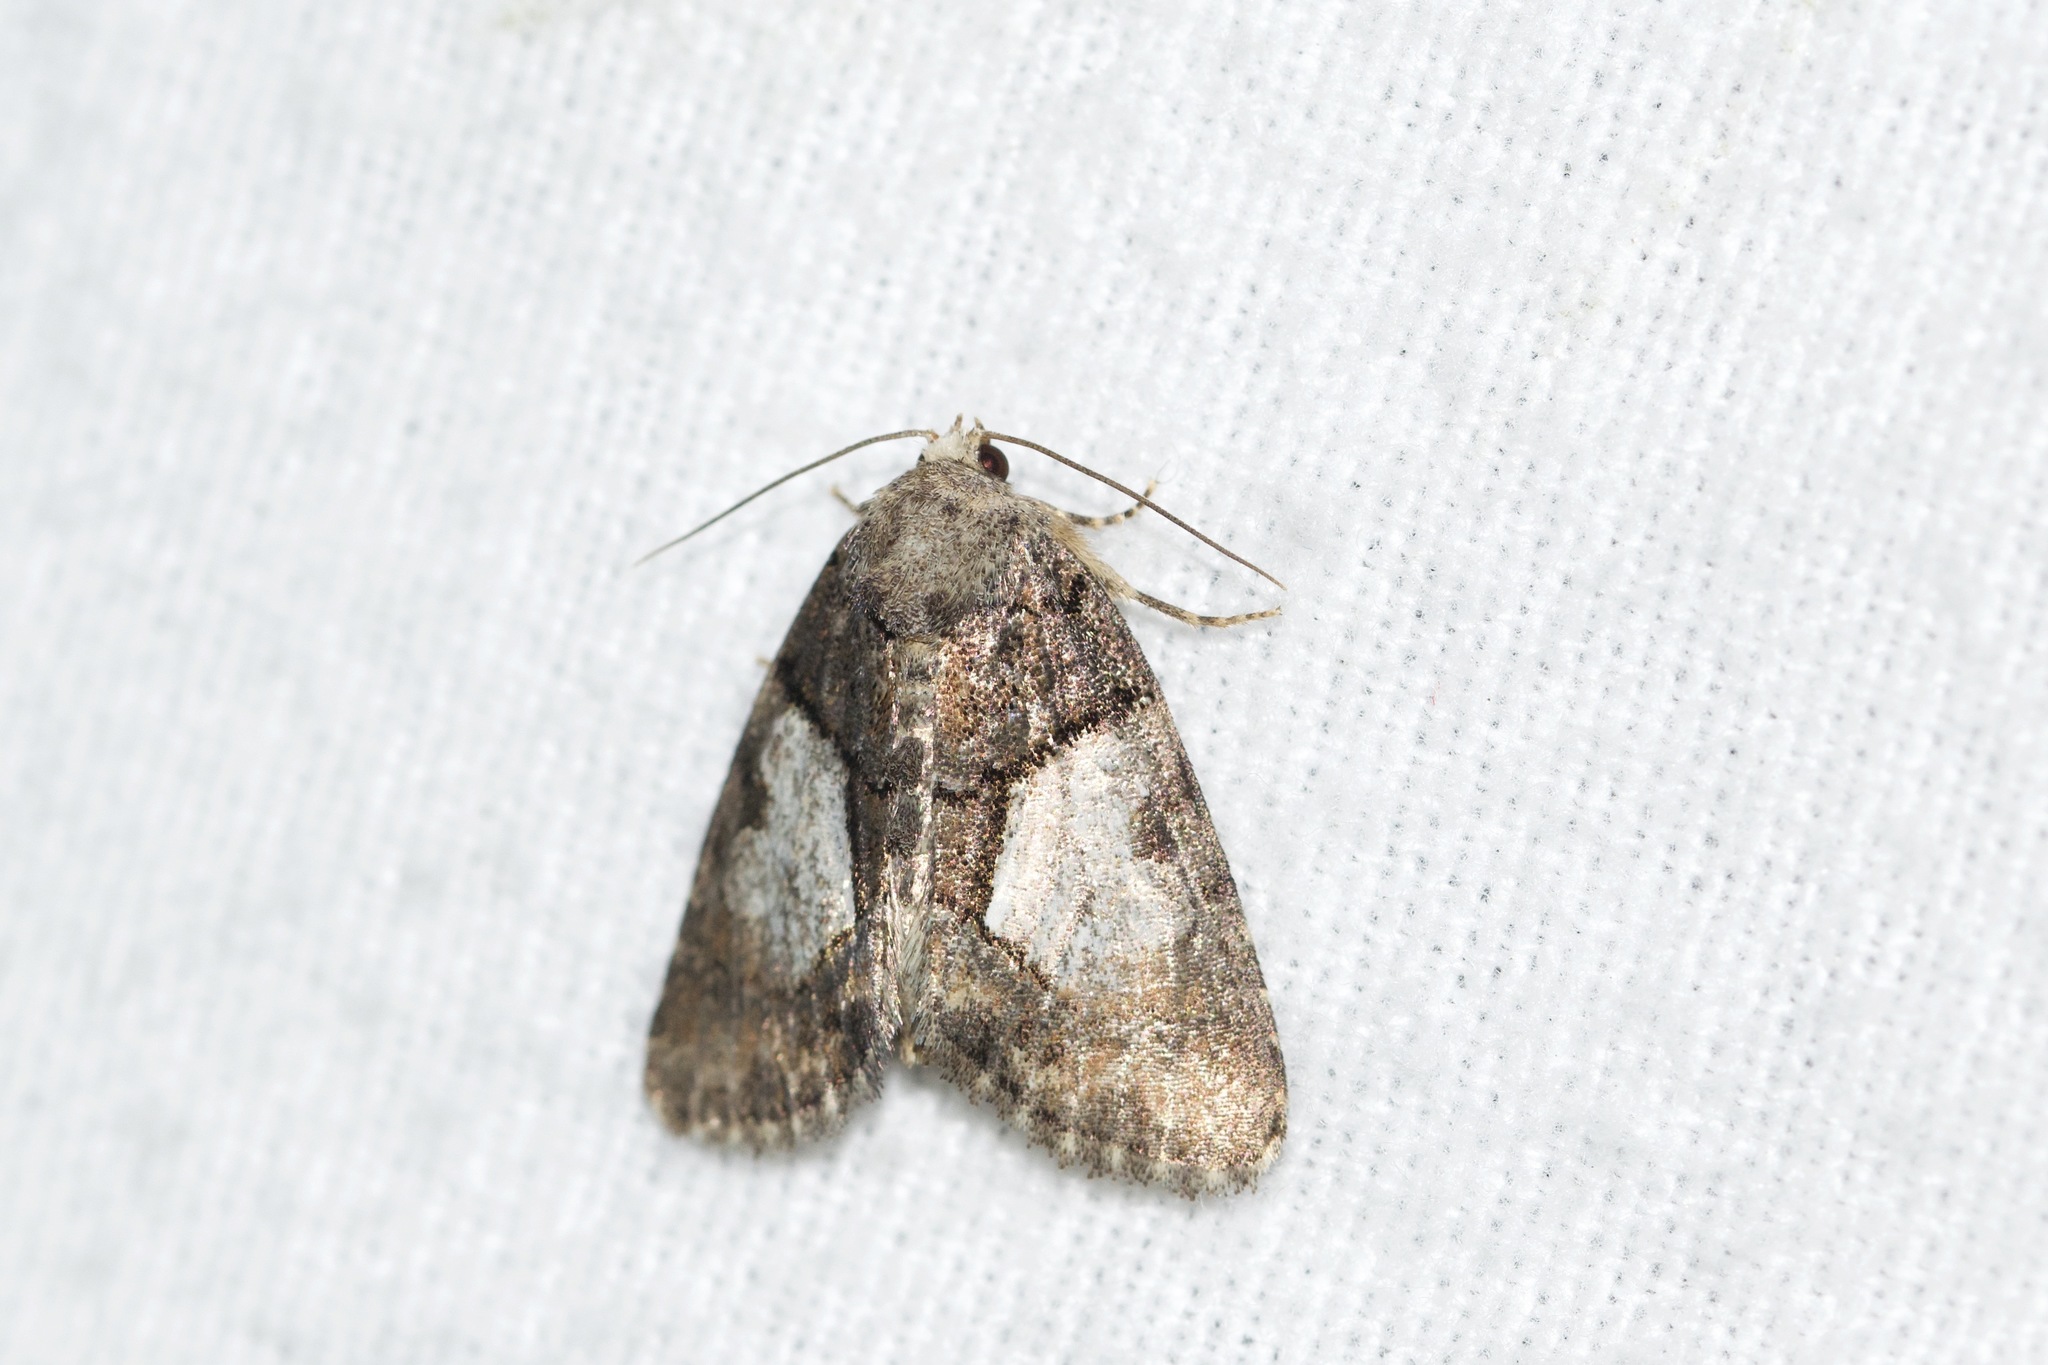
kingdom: Animalia
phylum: Arthropoda
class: Insecta
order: Lepidoptera
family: Noctuidae
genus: Chytonix
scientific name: Chytonix palliatricula
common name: Cloaked marvel
